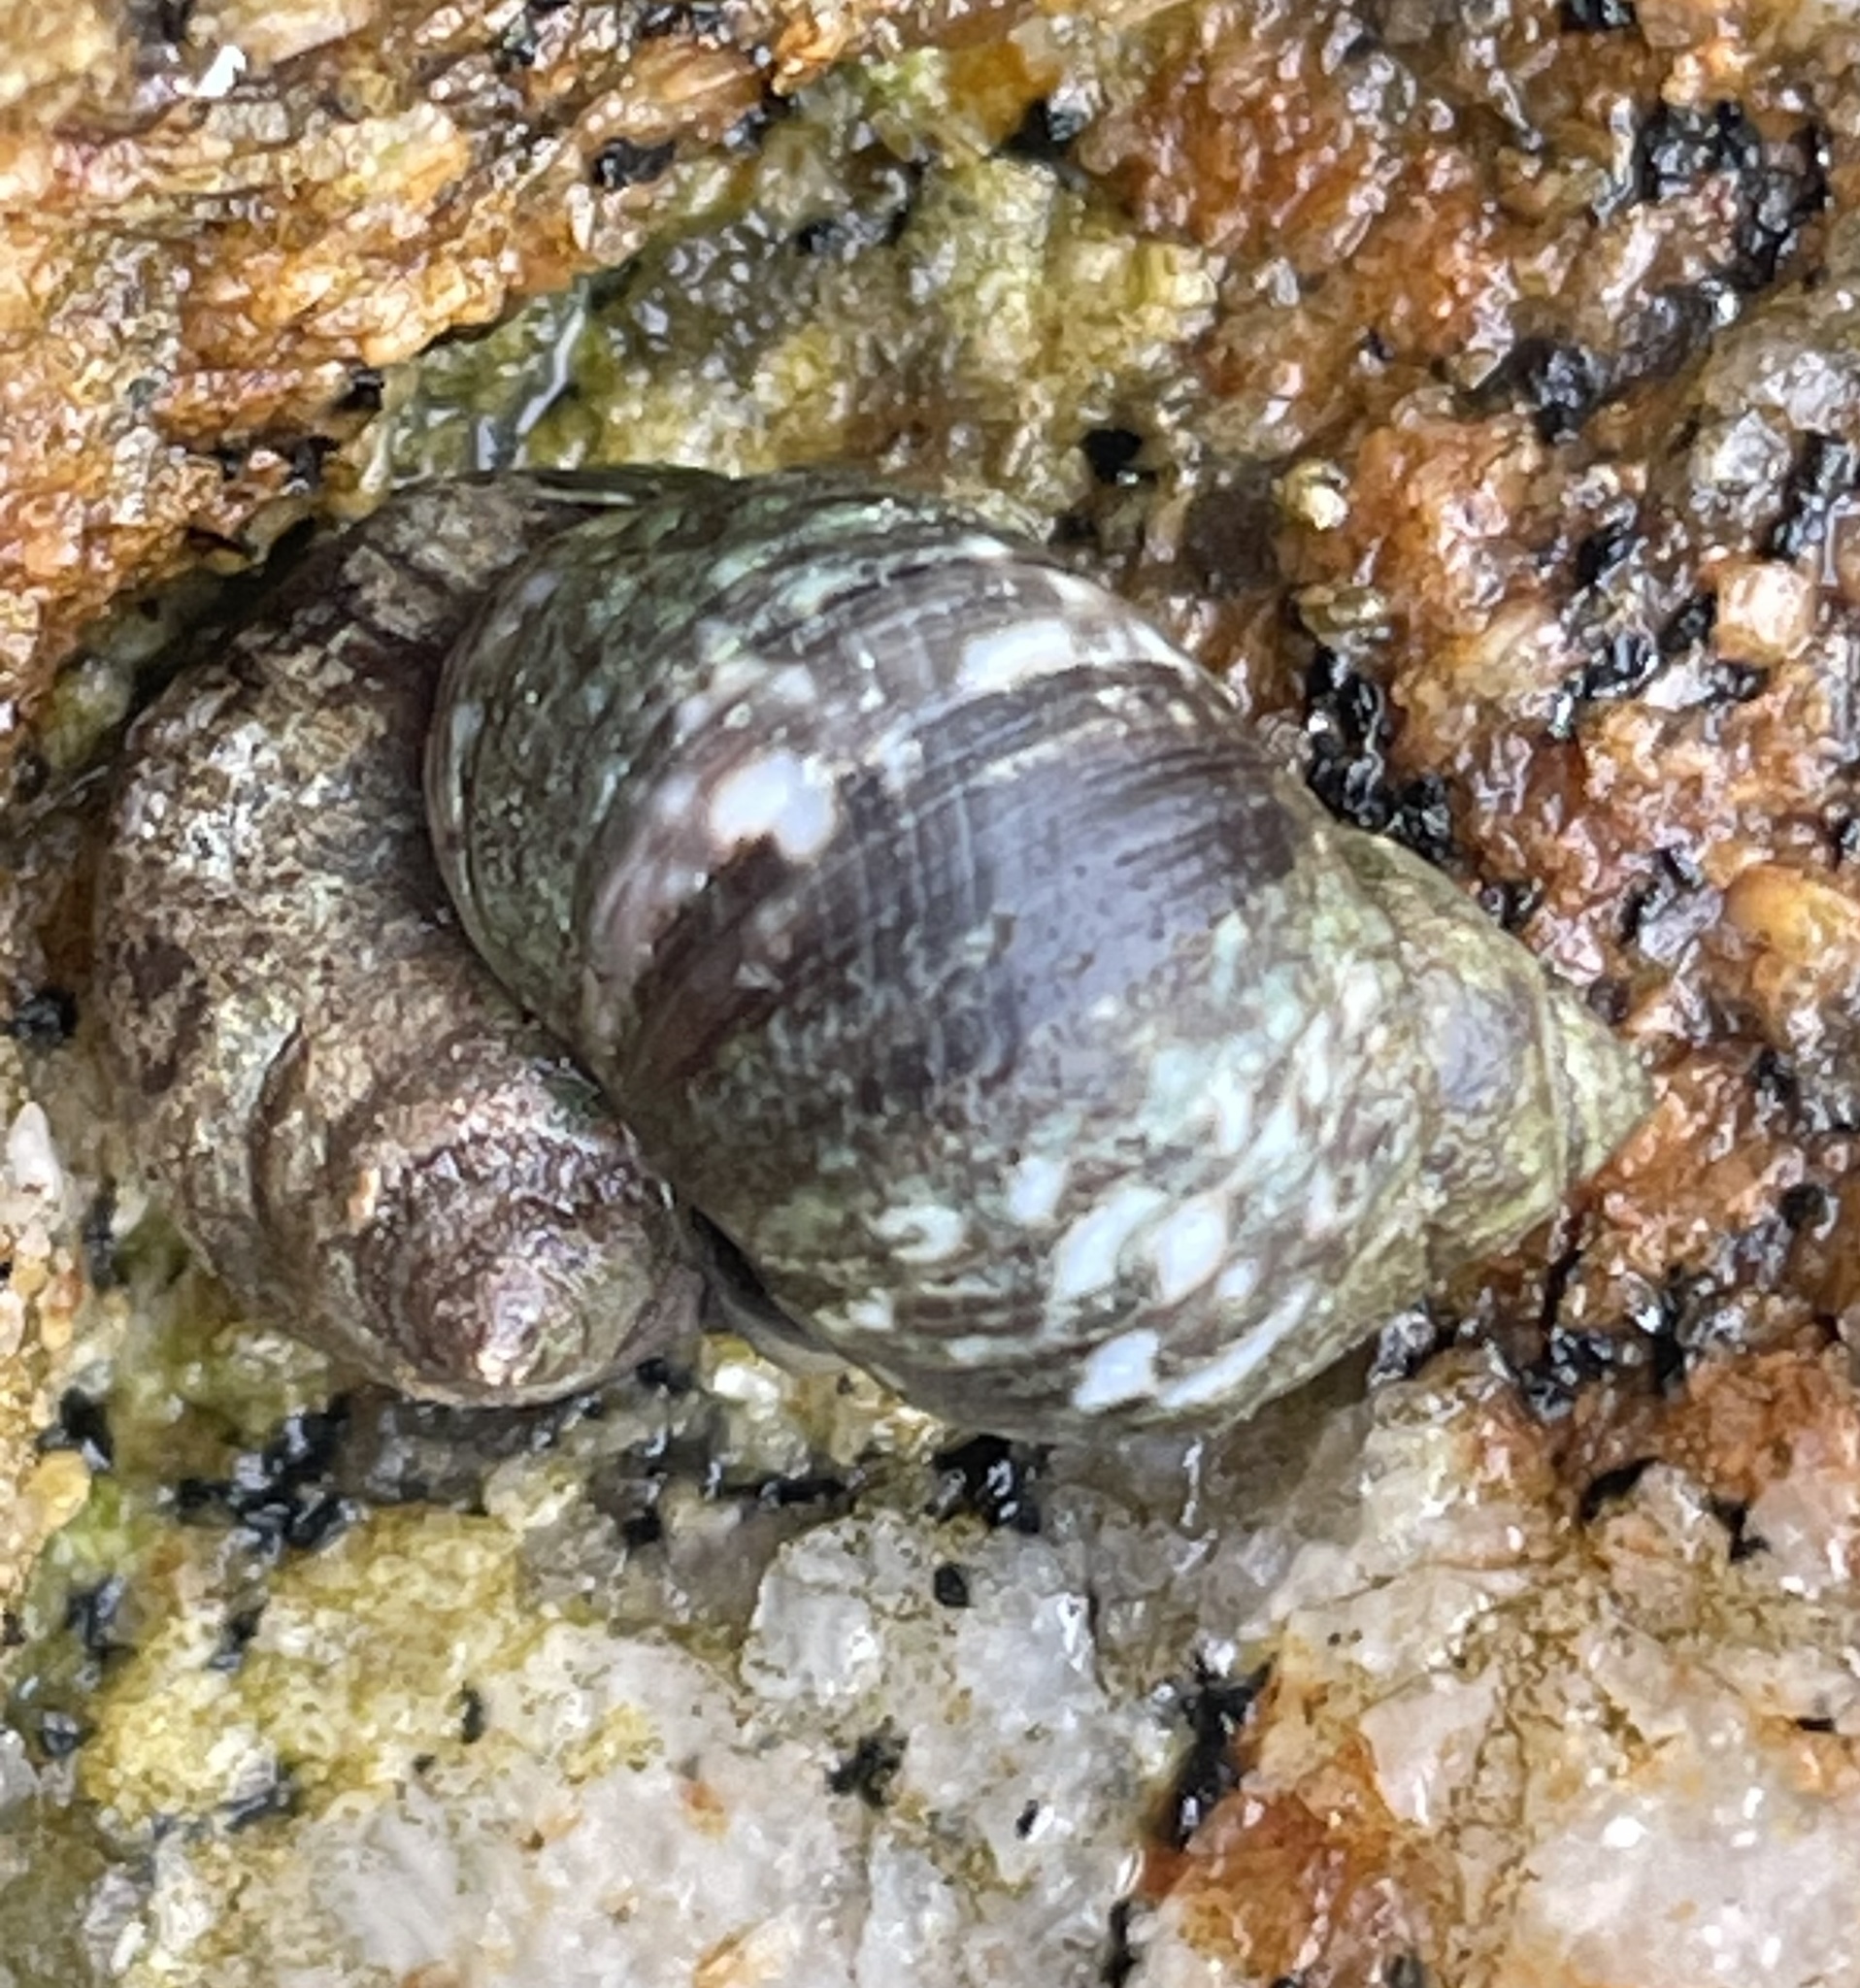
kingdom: Animalia
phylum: Mollusca
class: Gastropoda
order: Littorinimorpha
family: Littorinidae
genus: Littorina
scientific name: Littorina keenae
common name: Eroded periwinkle
